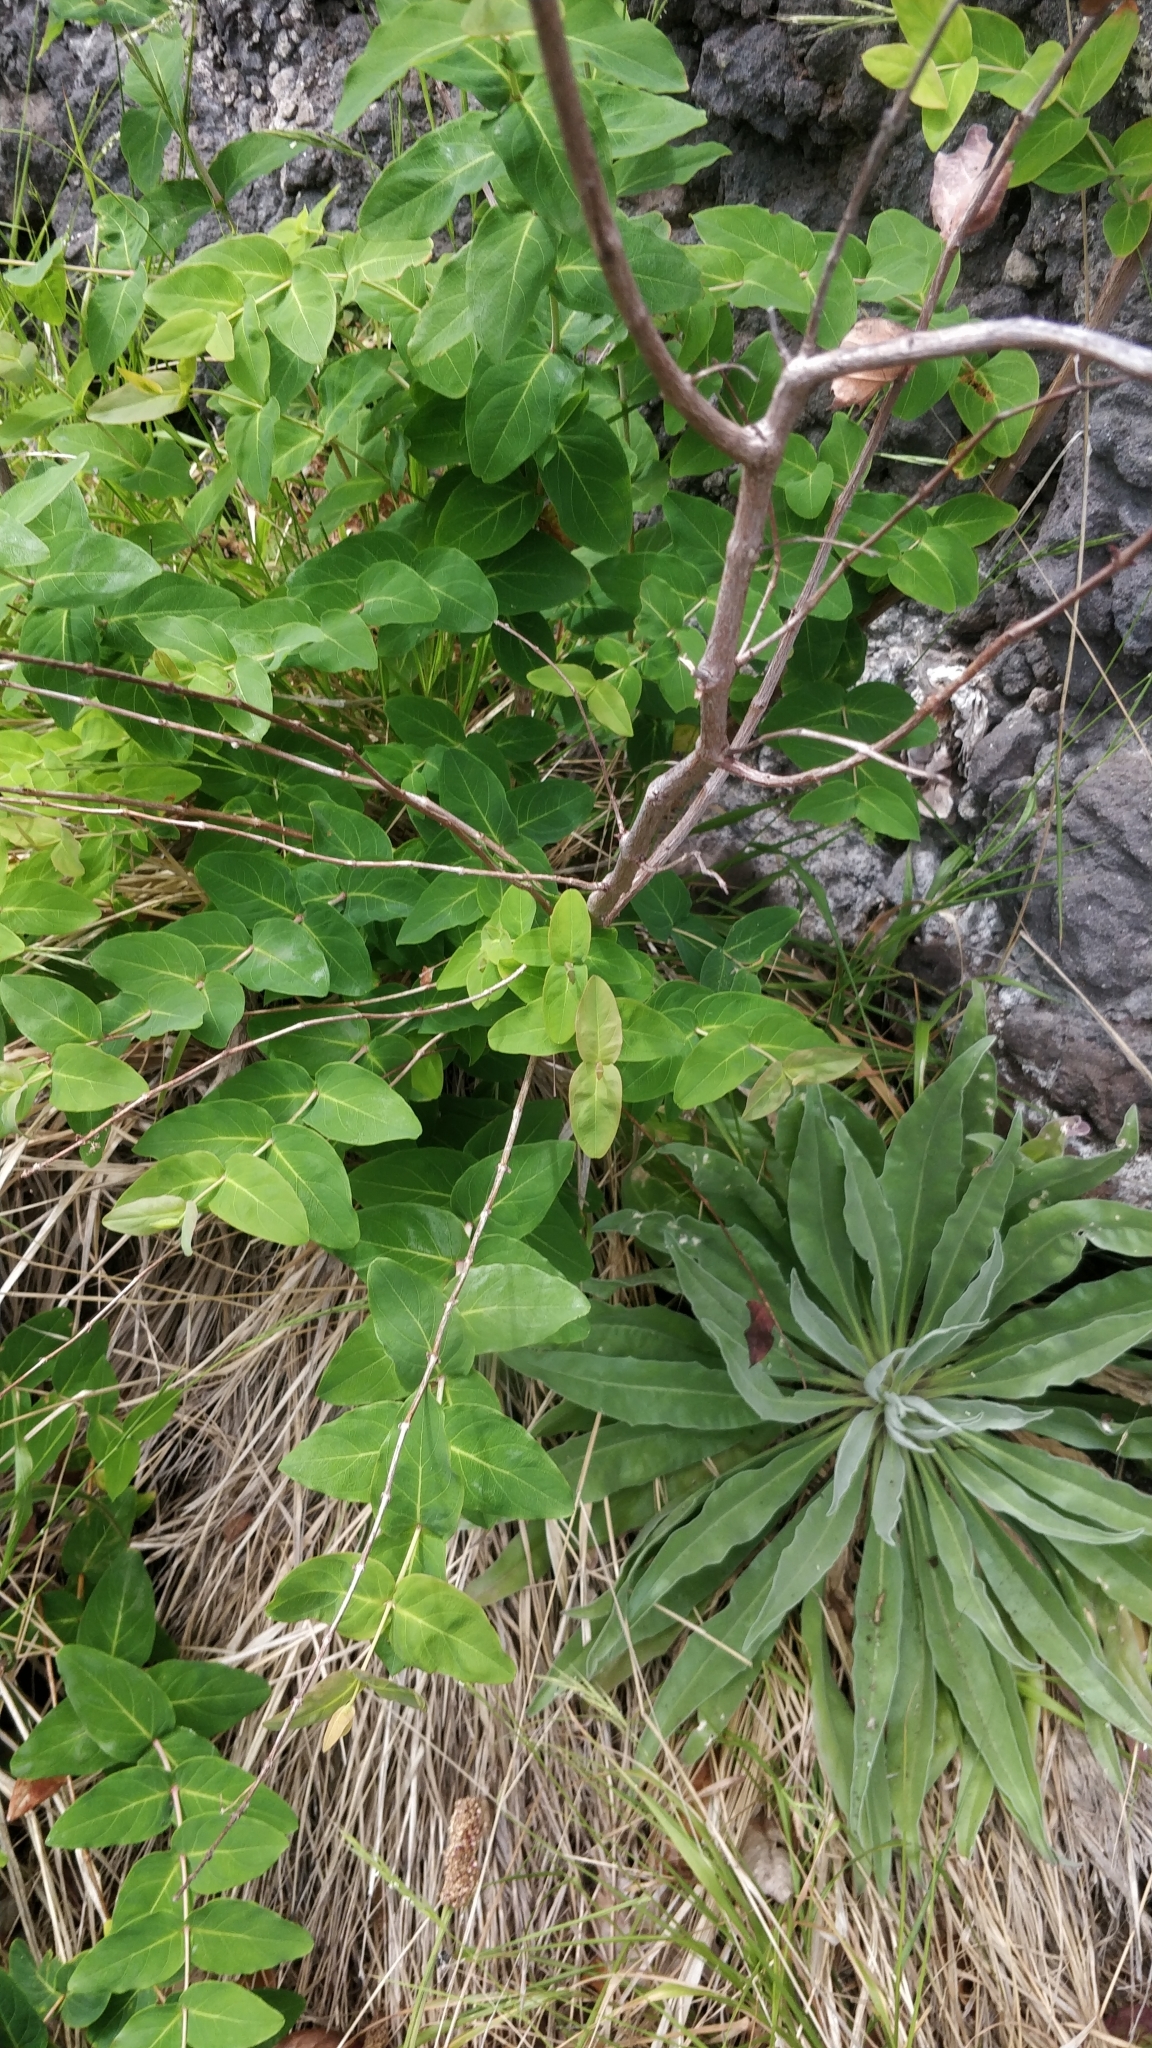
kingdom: Plantae
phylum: Tracheophyta
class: Magnoliopsida
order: Malpighiales
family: Hypericaceae
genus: Hypericum
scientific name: Hypericum grandifolium
